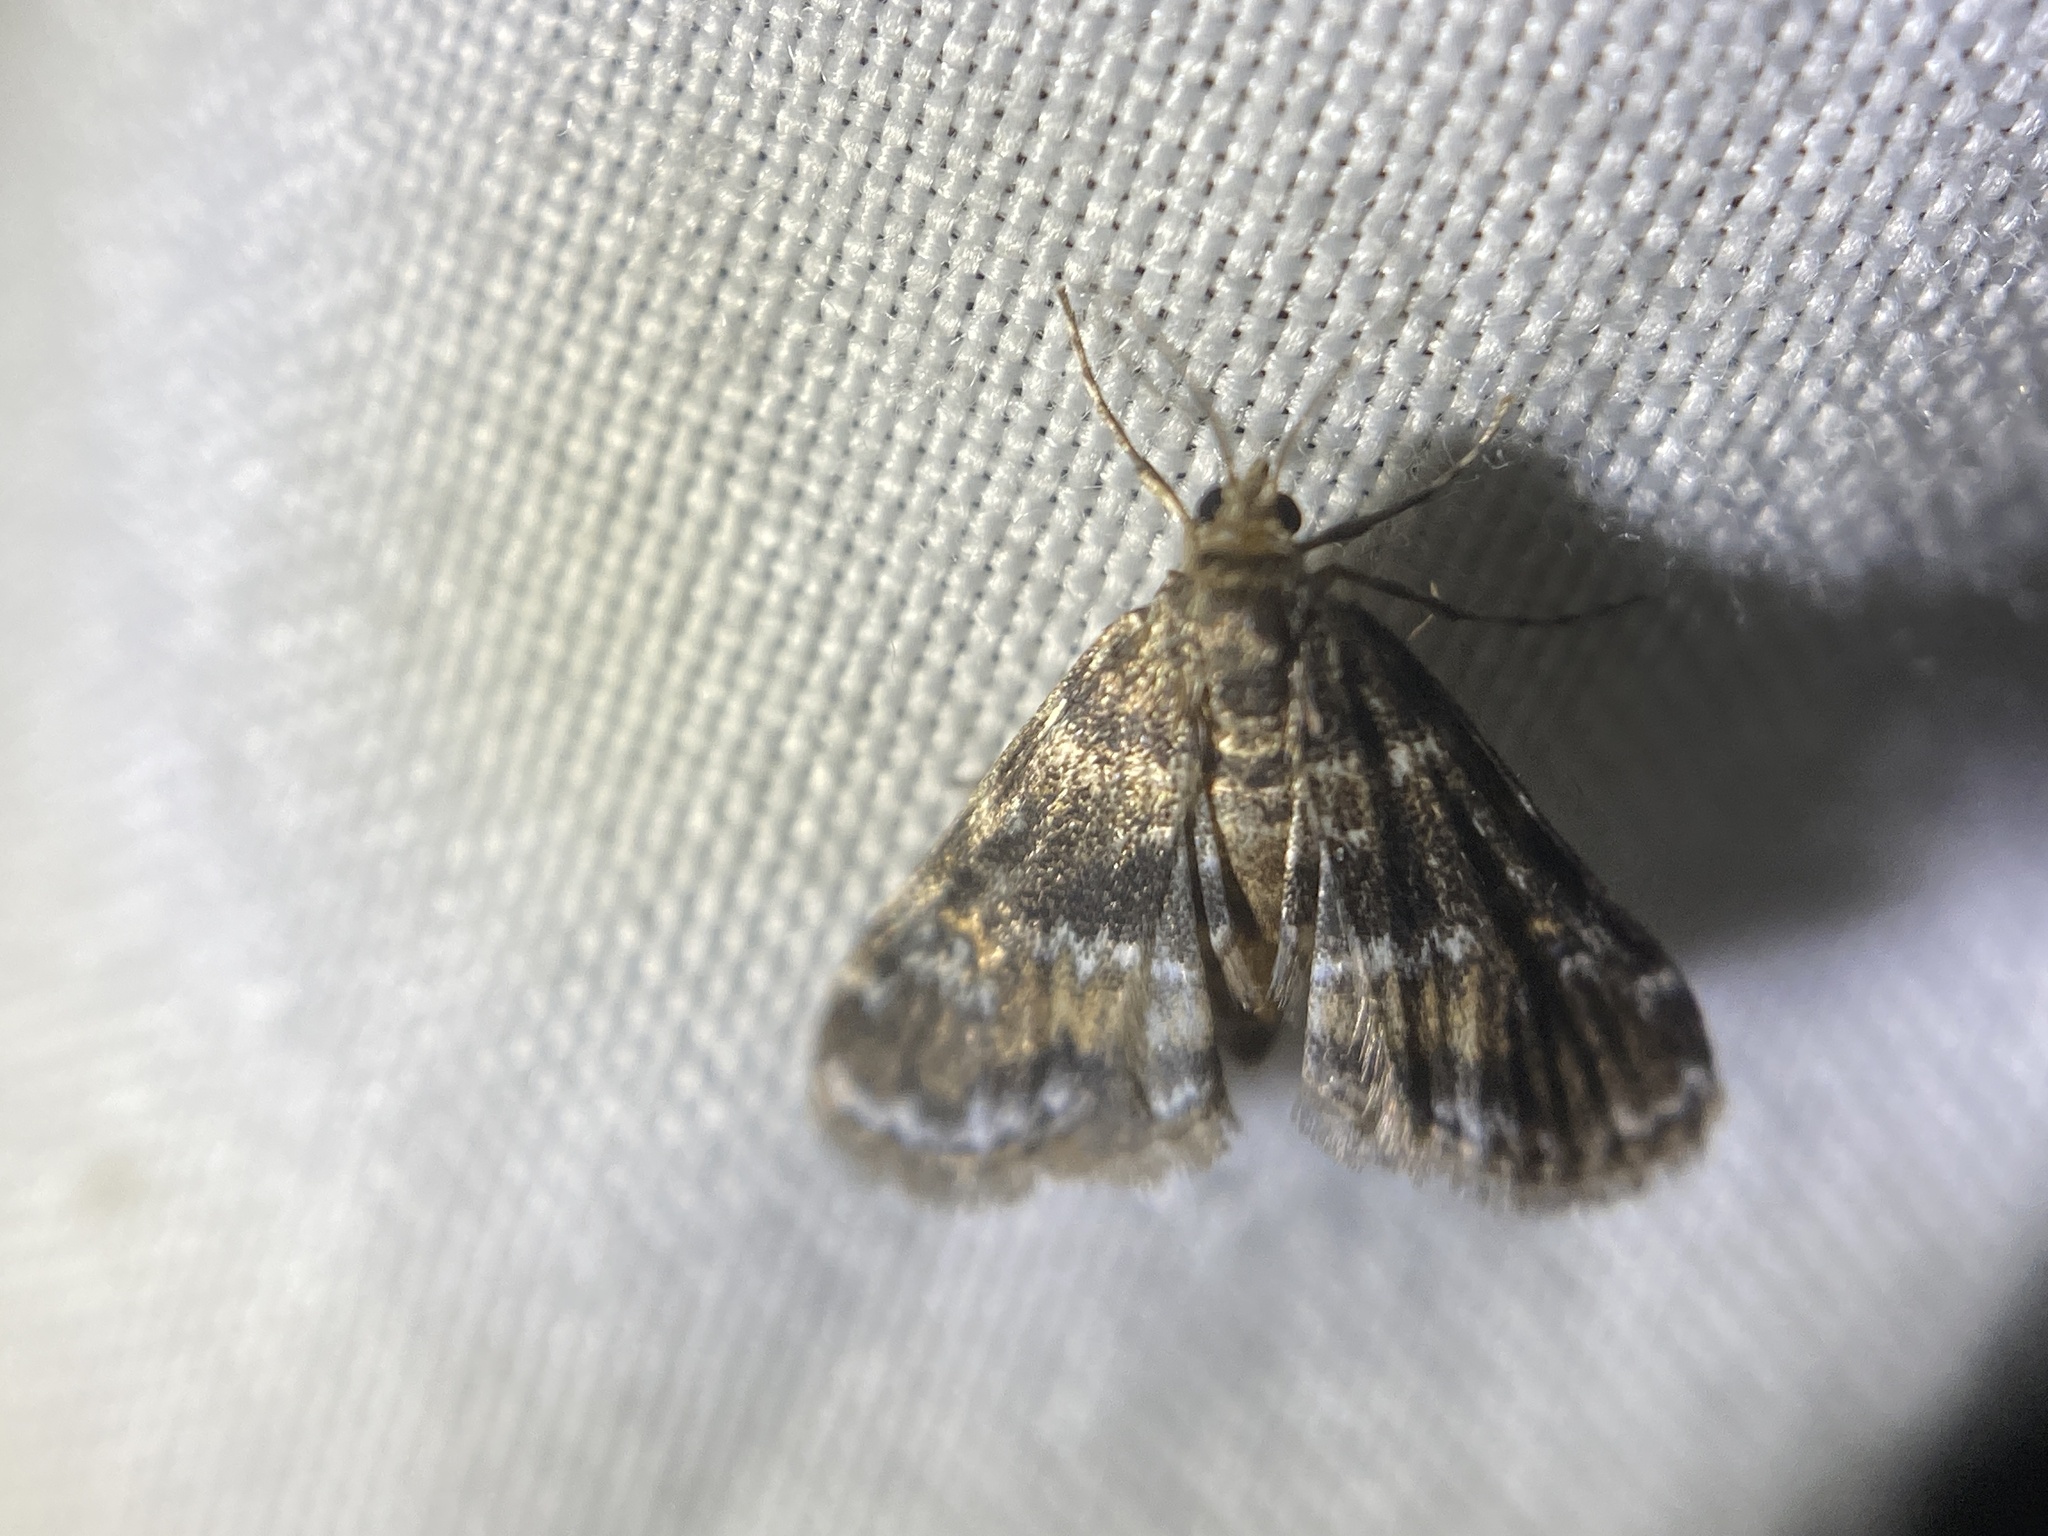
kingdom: Animalia
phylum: Arthropoda
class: Insecta
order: Lepidoptera
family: Crambidae
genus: Elophila
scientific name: Elophila obliteralis
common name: Waterlily leafcutter moth
